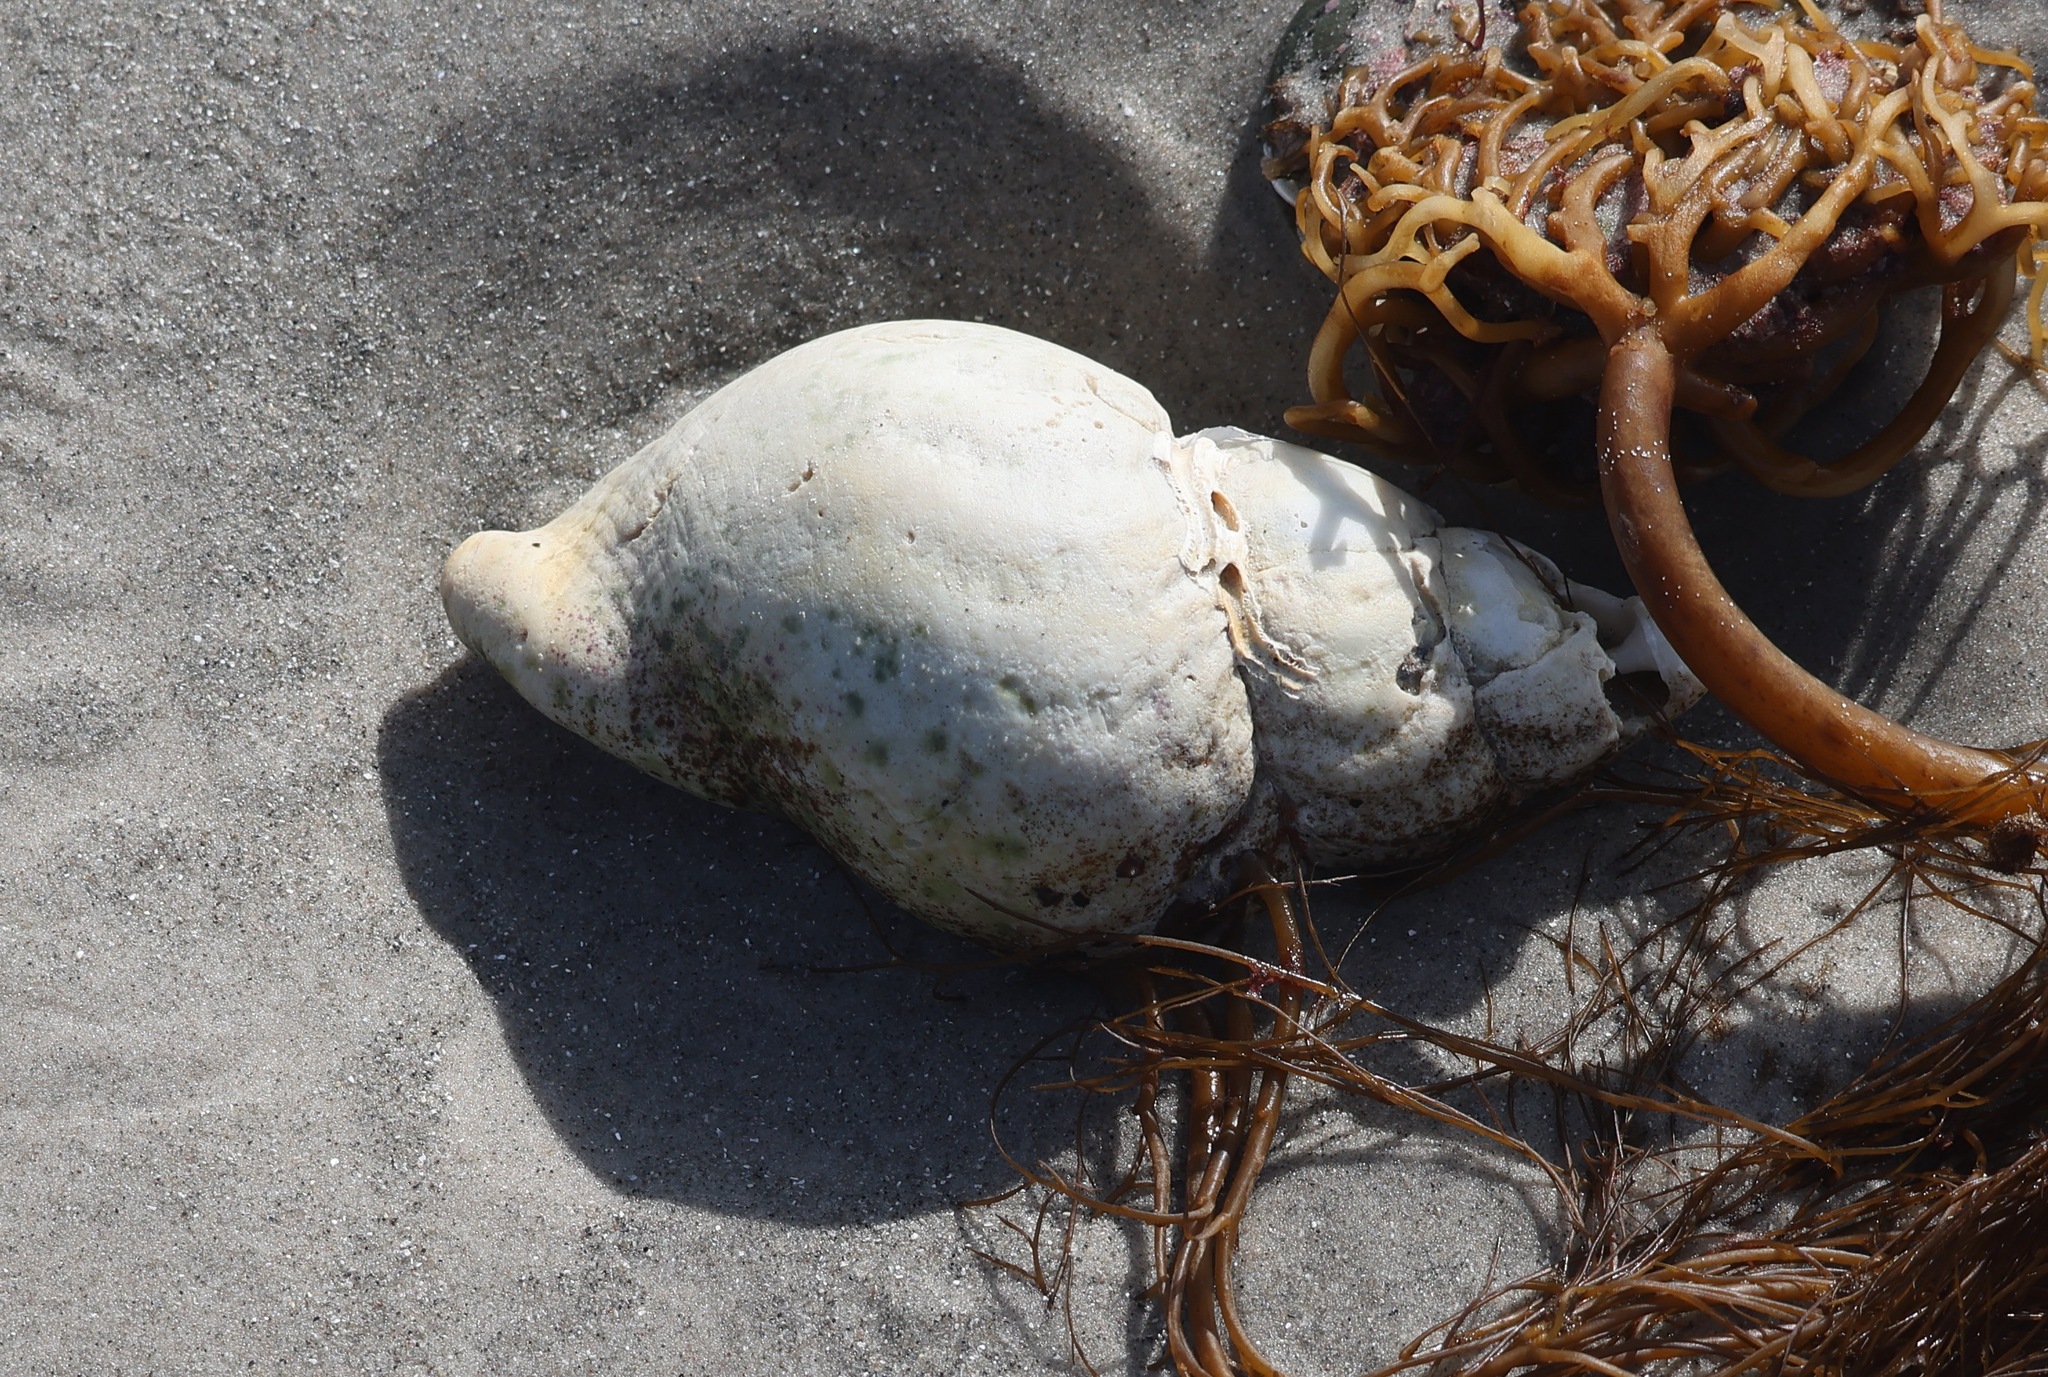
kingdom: Animalia
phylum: Mollusca
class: Gastropoda
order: Neogastropoda
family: Buccinidae
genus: Buccinum
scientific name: Buccinum undatum
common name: Common whelk
